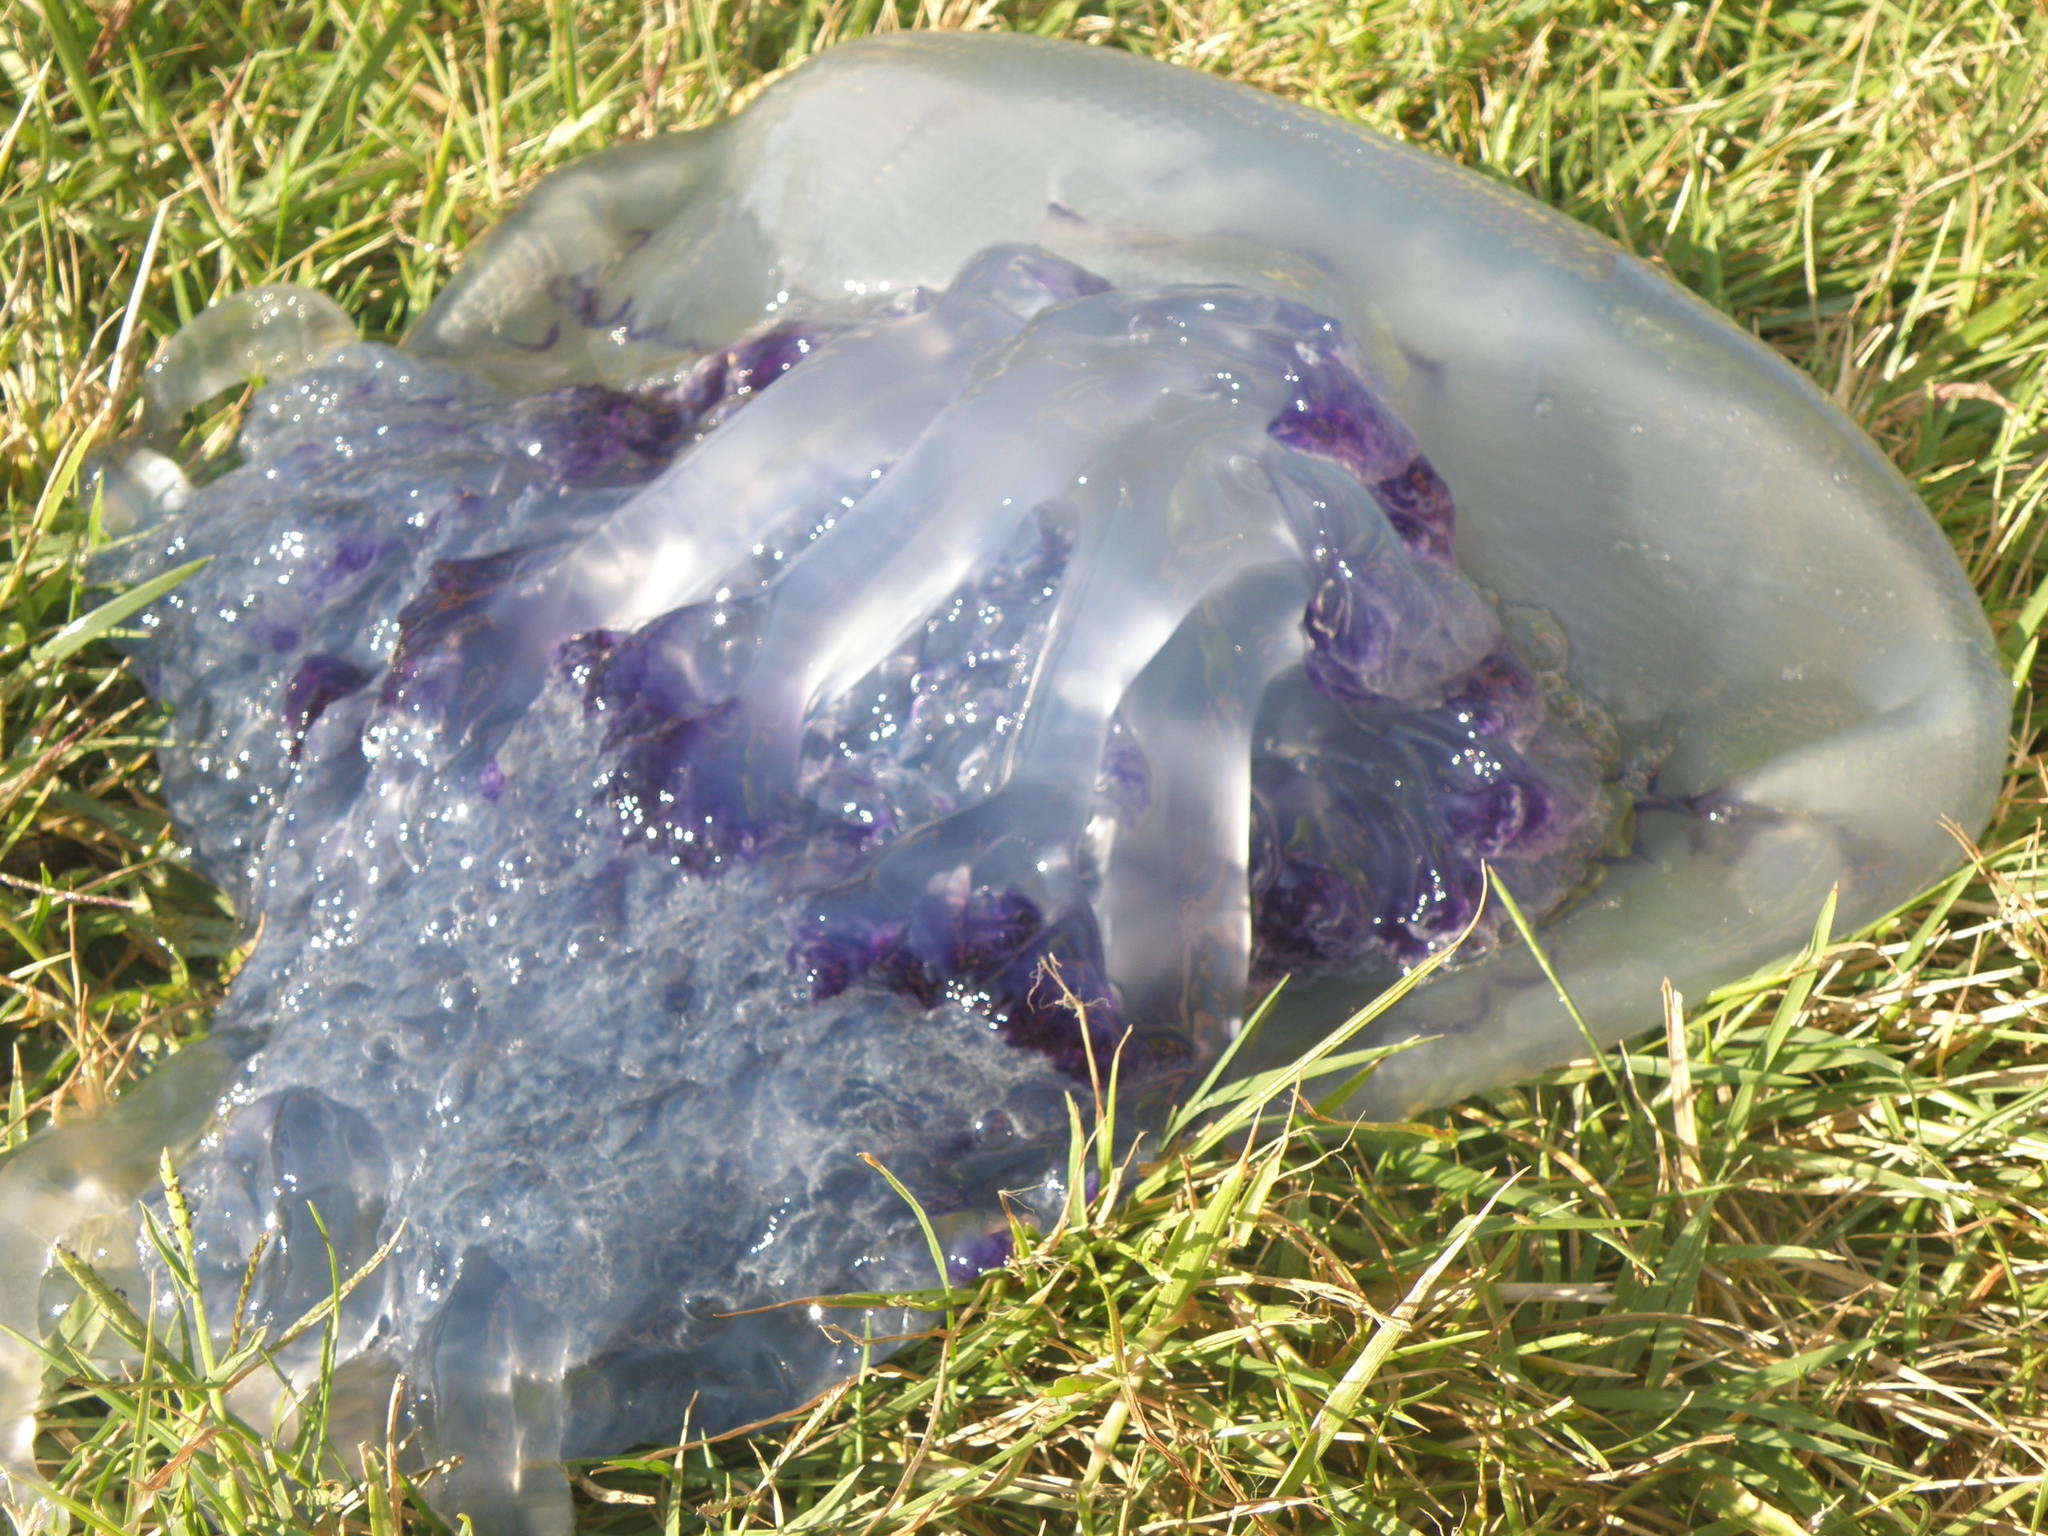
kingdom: Animalia
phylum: Cnidaria
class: Scyphozoa
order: Rhizostomeae
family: Rhizostomatidae
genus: Rhizostoma
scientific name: Rhizostoma pulmo
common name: Barrel jellyfish
